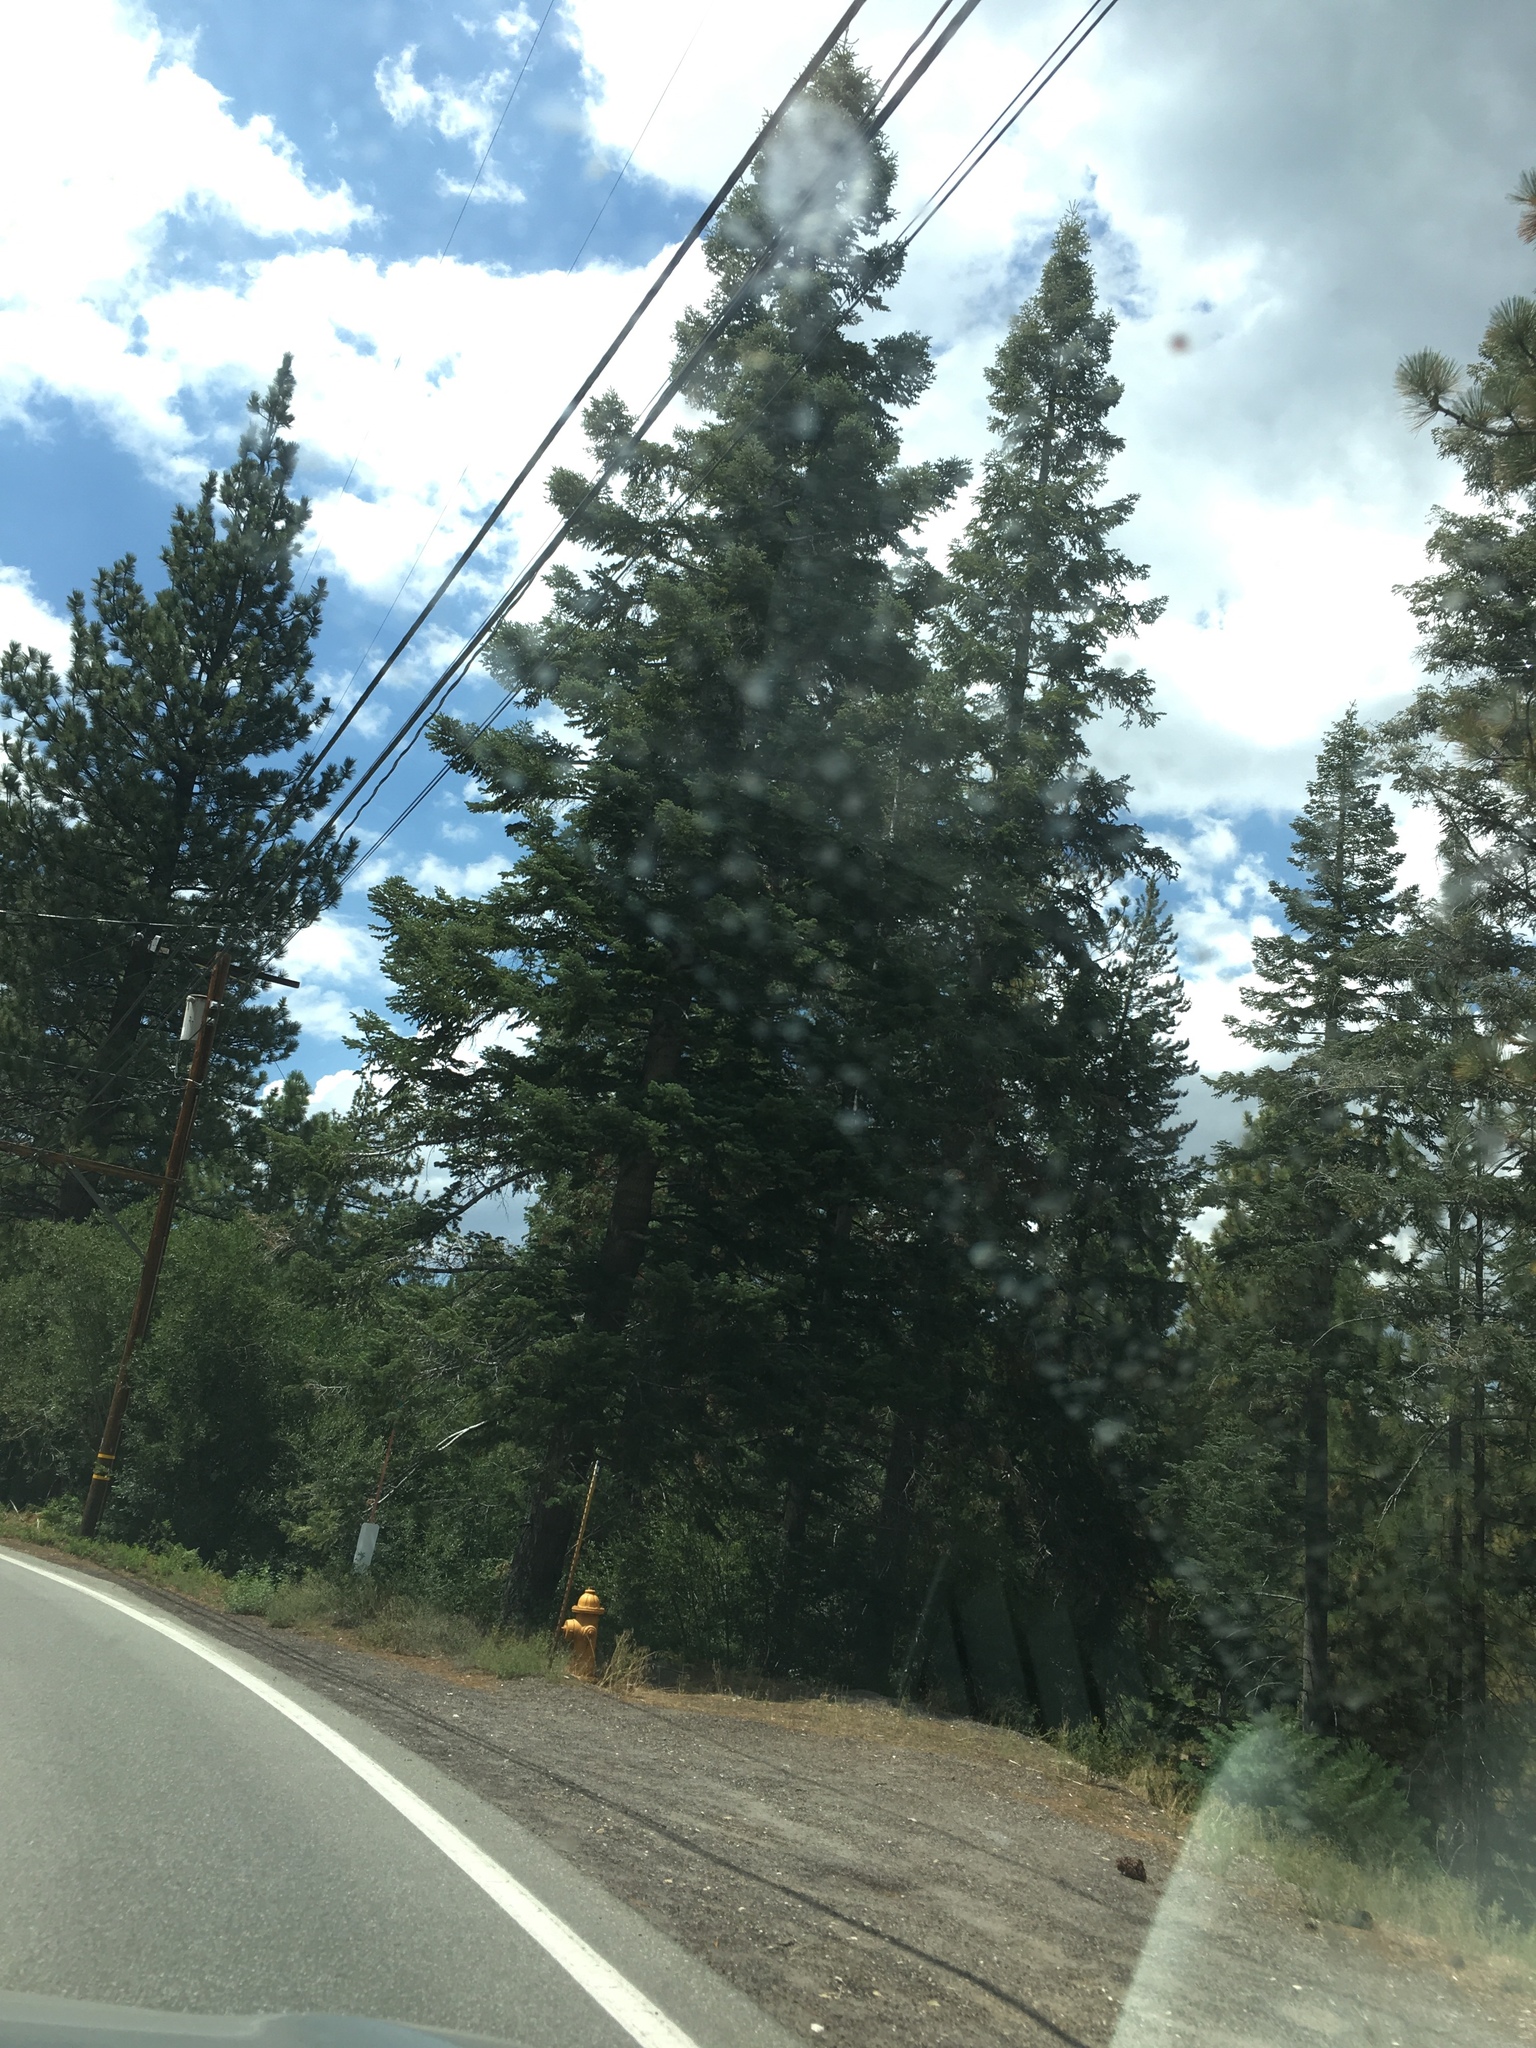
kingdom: Plantae
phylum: Tracheophyta
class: Pinopsida
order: Pinales
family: Pinaceae
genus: Abies
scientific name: Abies concolor
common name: Colorado fir
